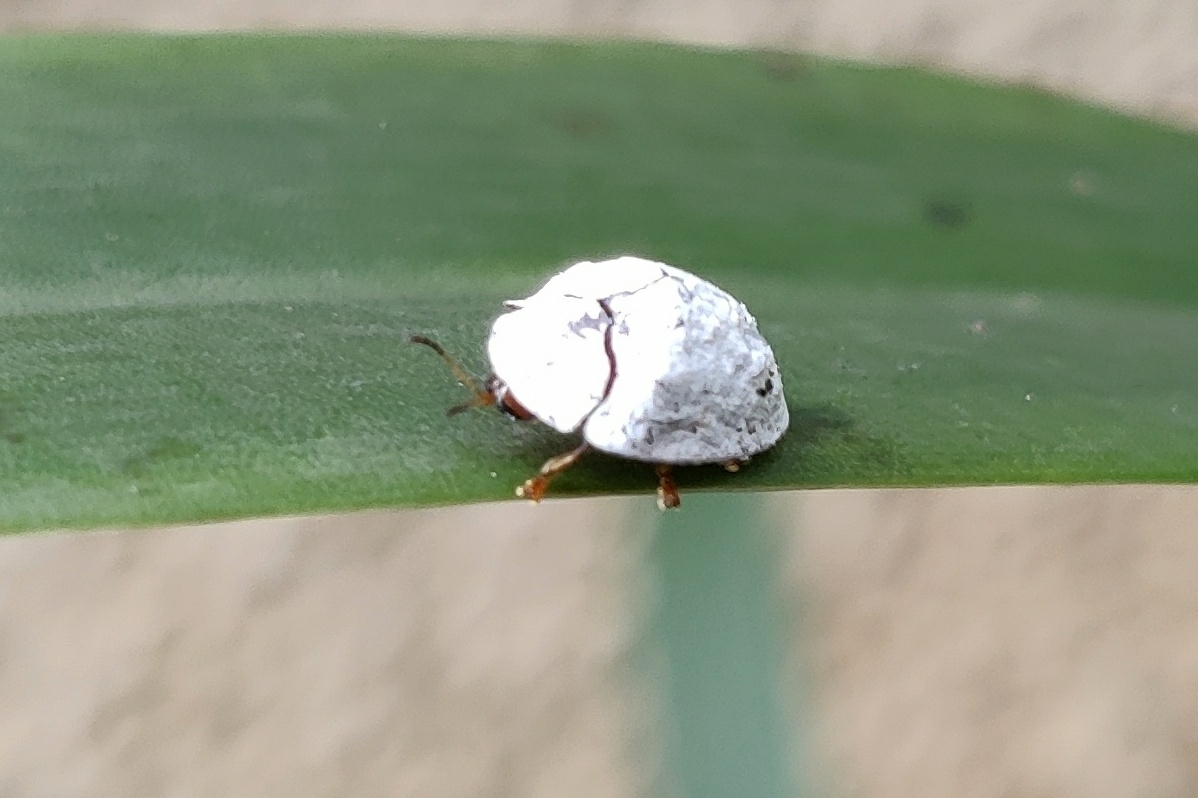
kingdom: Animalia
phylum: Arthropoda
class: Insecta
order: Coleoptera
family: Chrysomelidae
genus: Silana
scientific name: Silana farinosa
